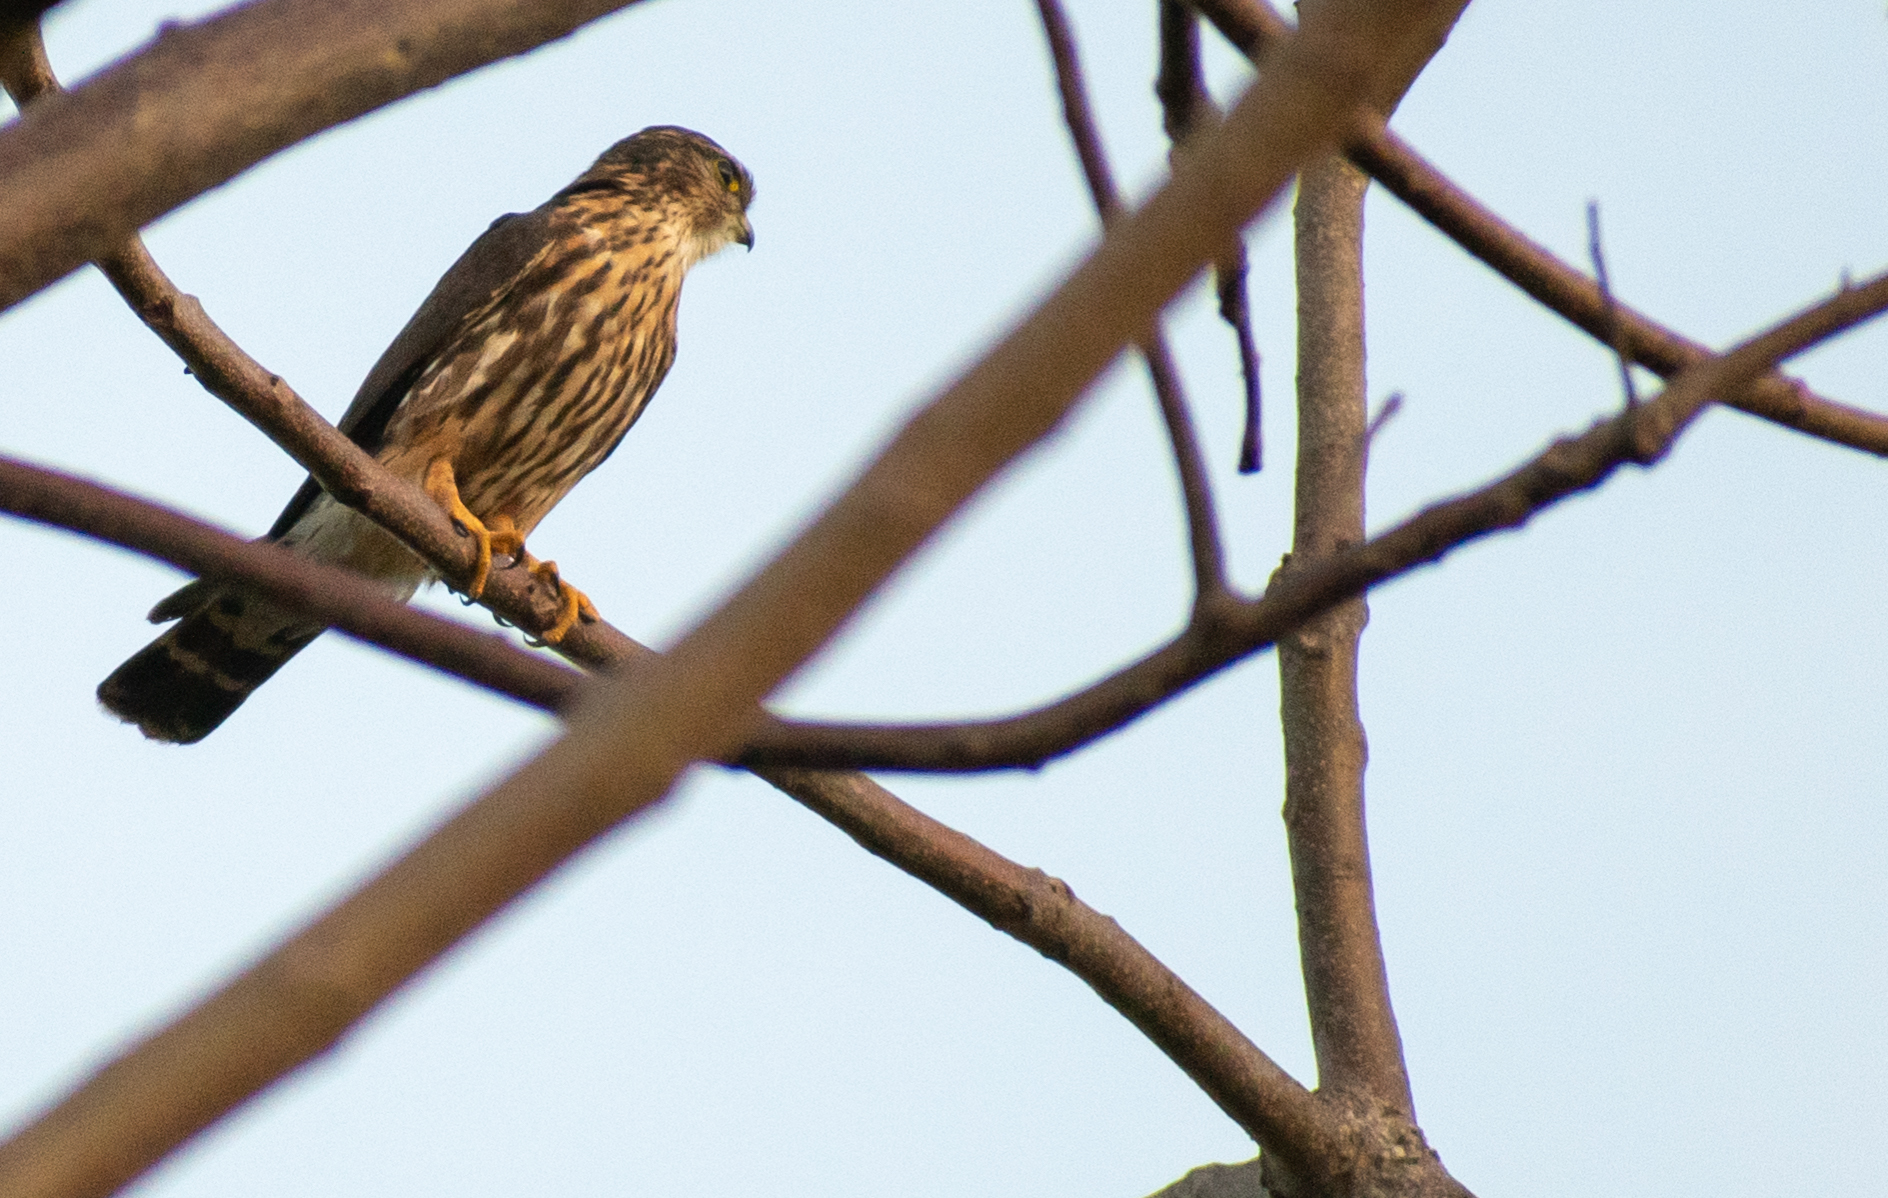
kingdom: Animalia
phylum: Chordata
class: Aves
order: Falconiformes
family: Falconidae
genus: Falco
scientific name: Falco columbarius
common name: Merlin
